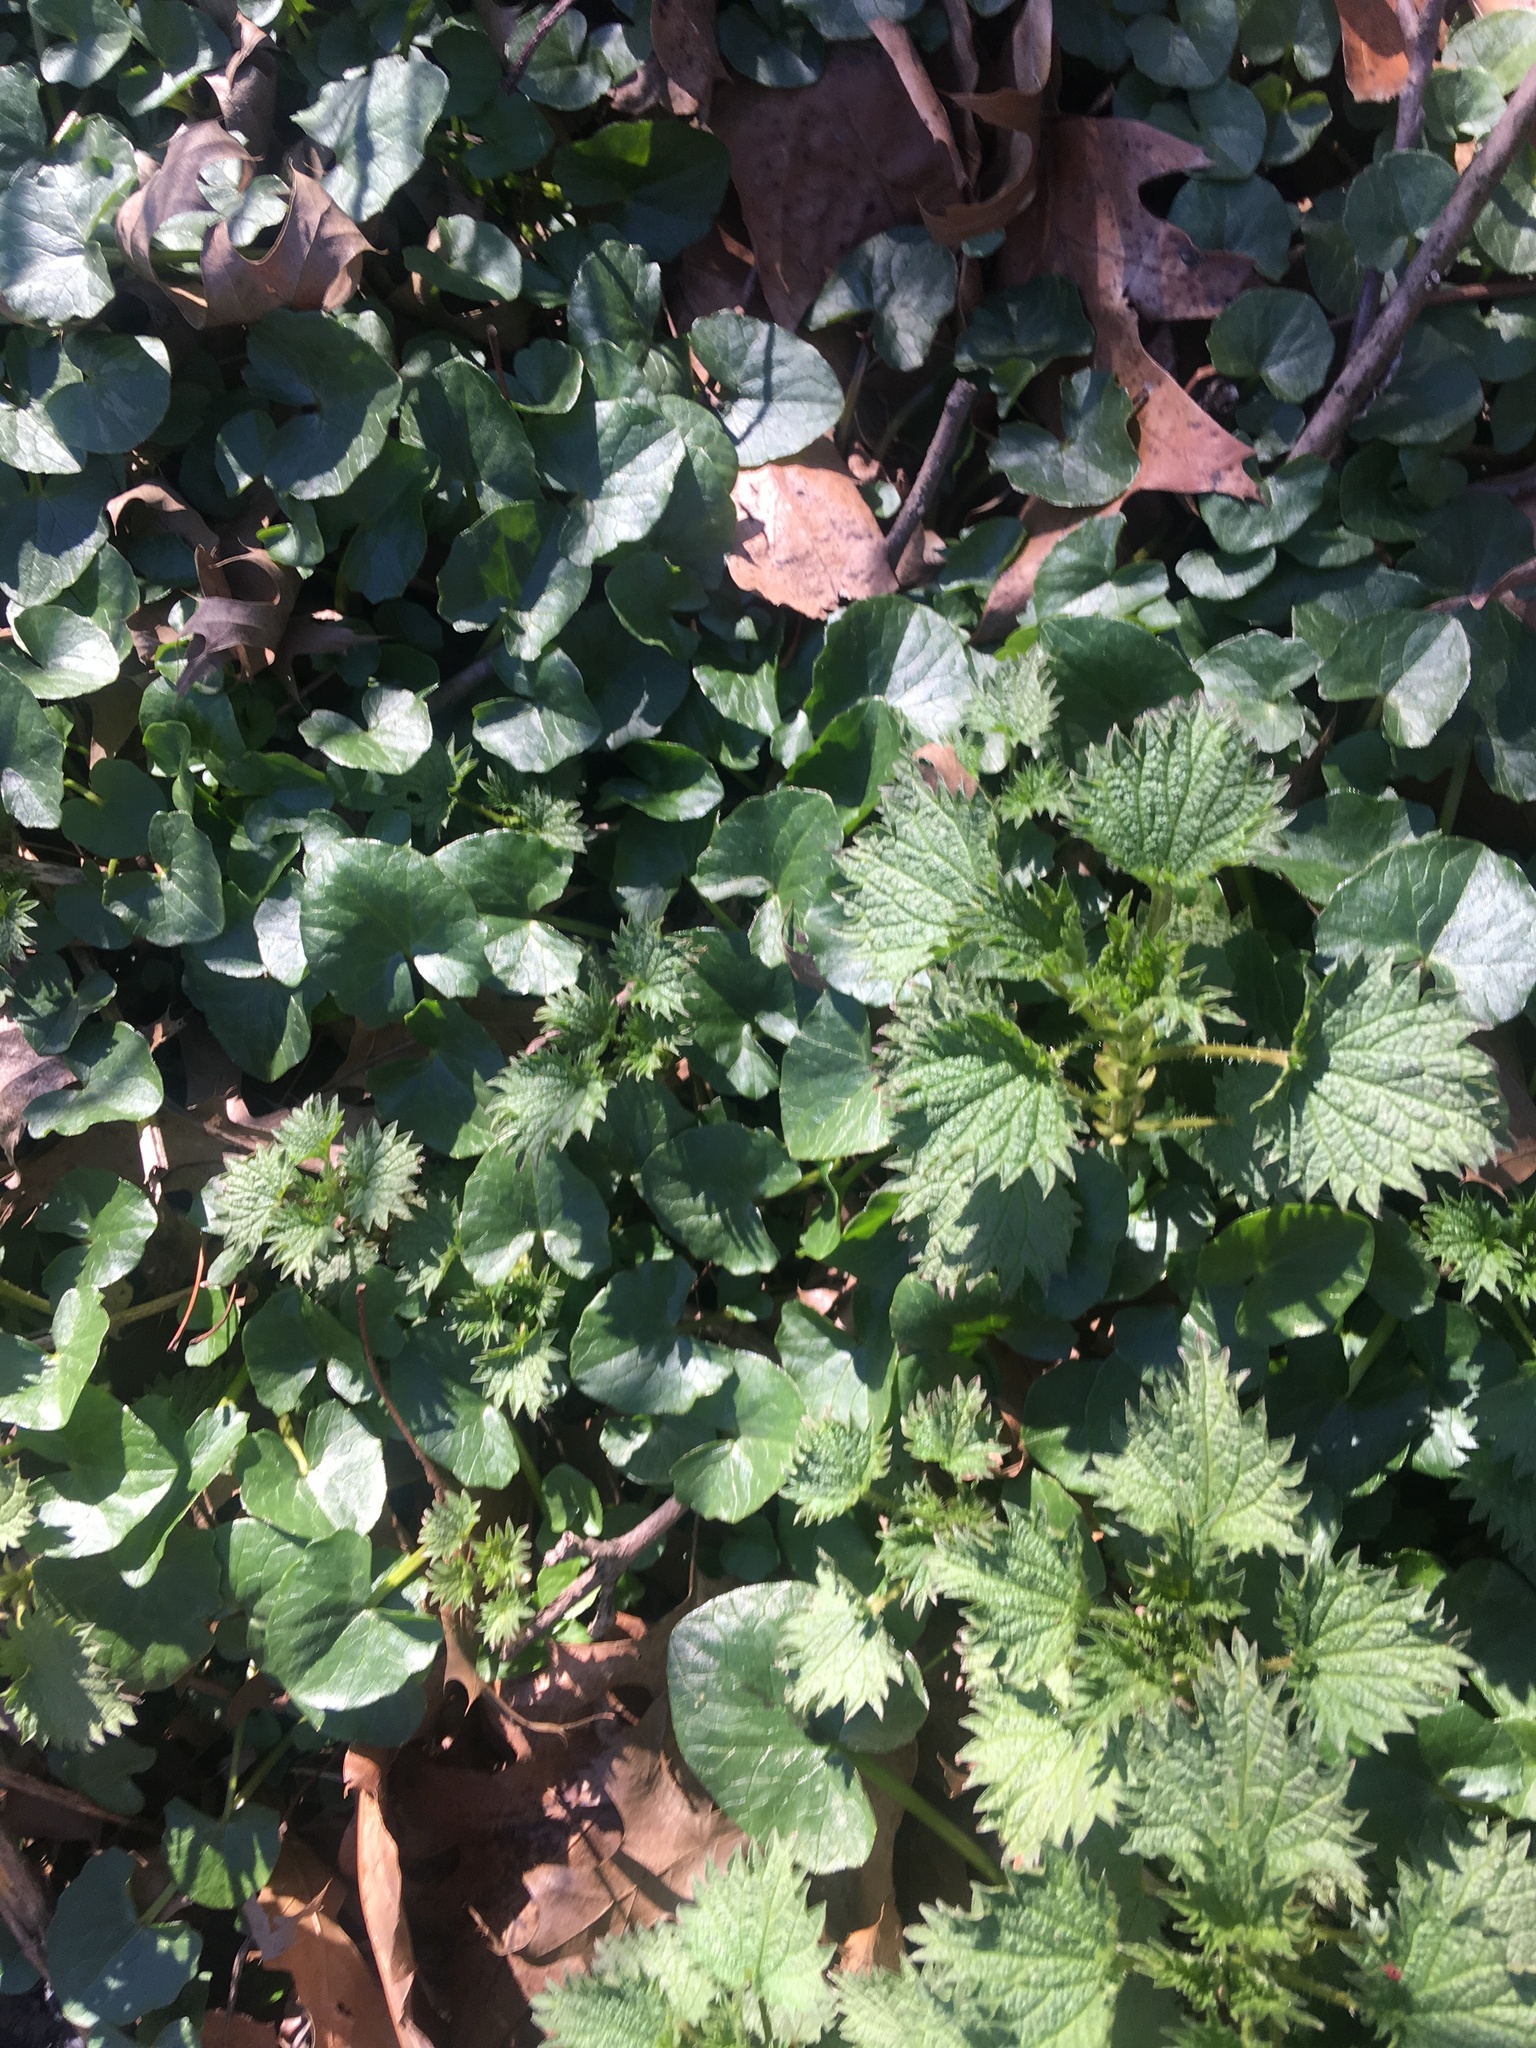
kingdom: Plantae
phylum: Tracheophyta
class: Magnoliopsida
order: Ranunculales
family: Ranunculaceae
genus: Ficaria
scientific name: Ficaria verna
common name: Lesser celandine
